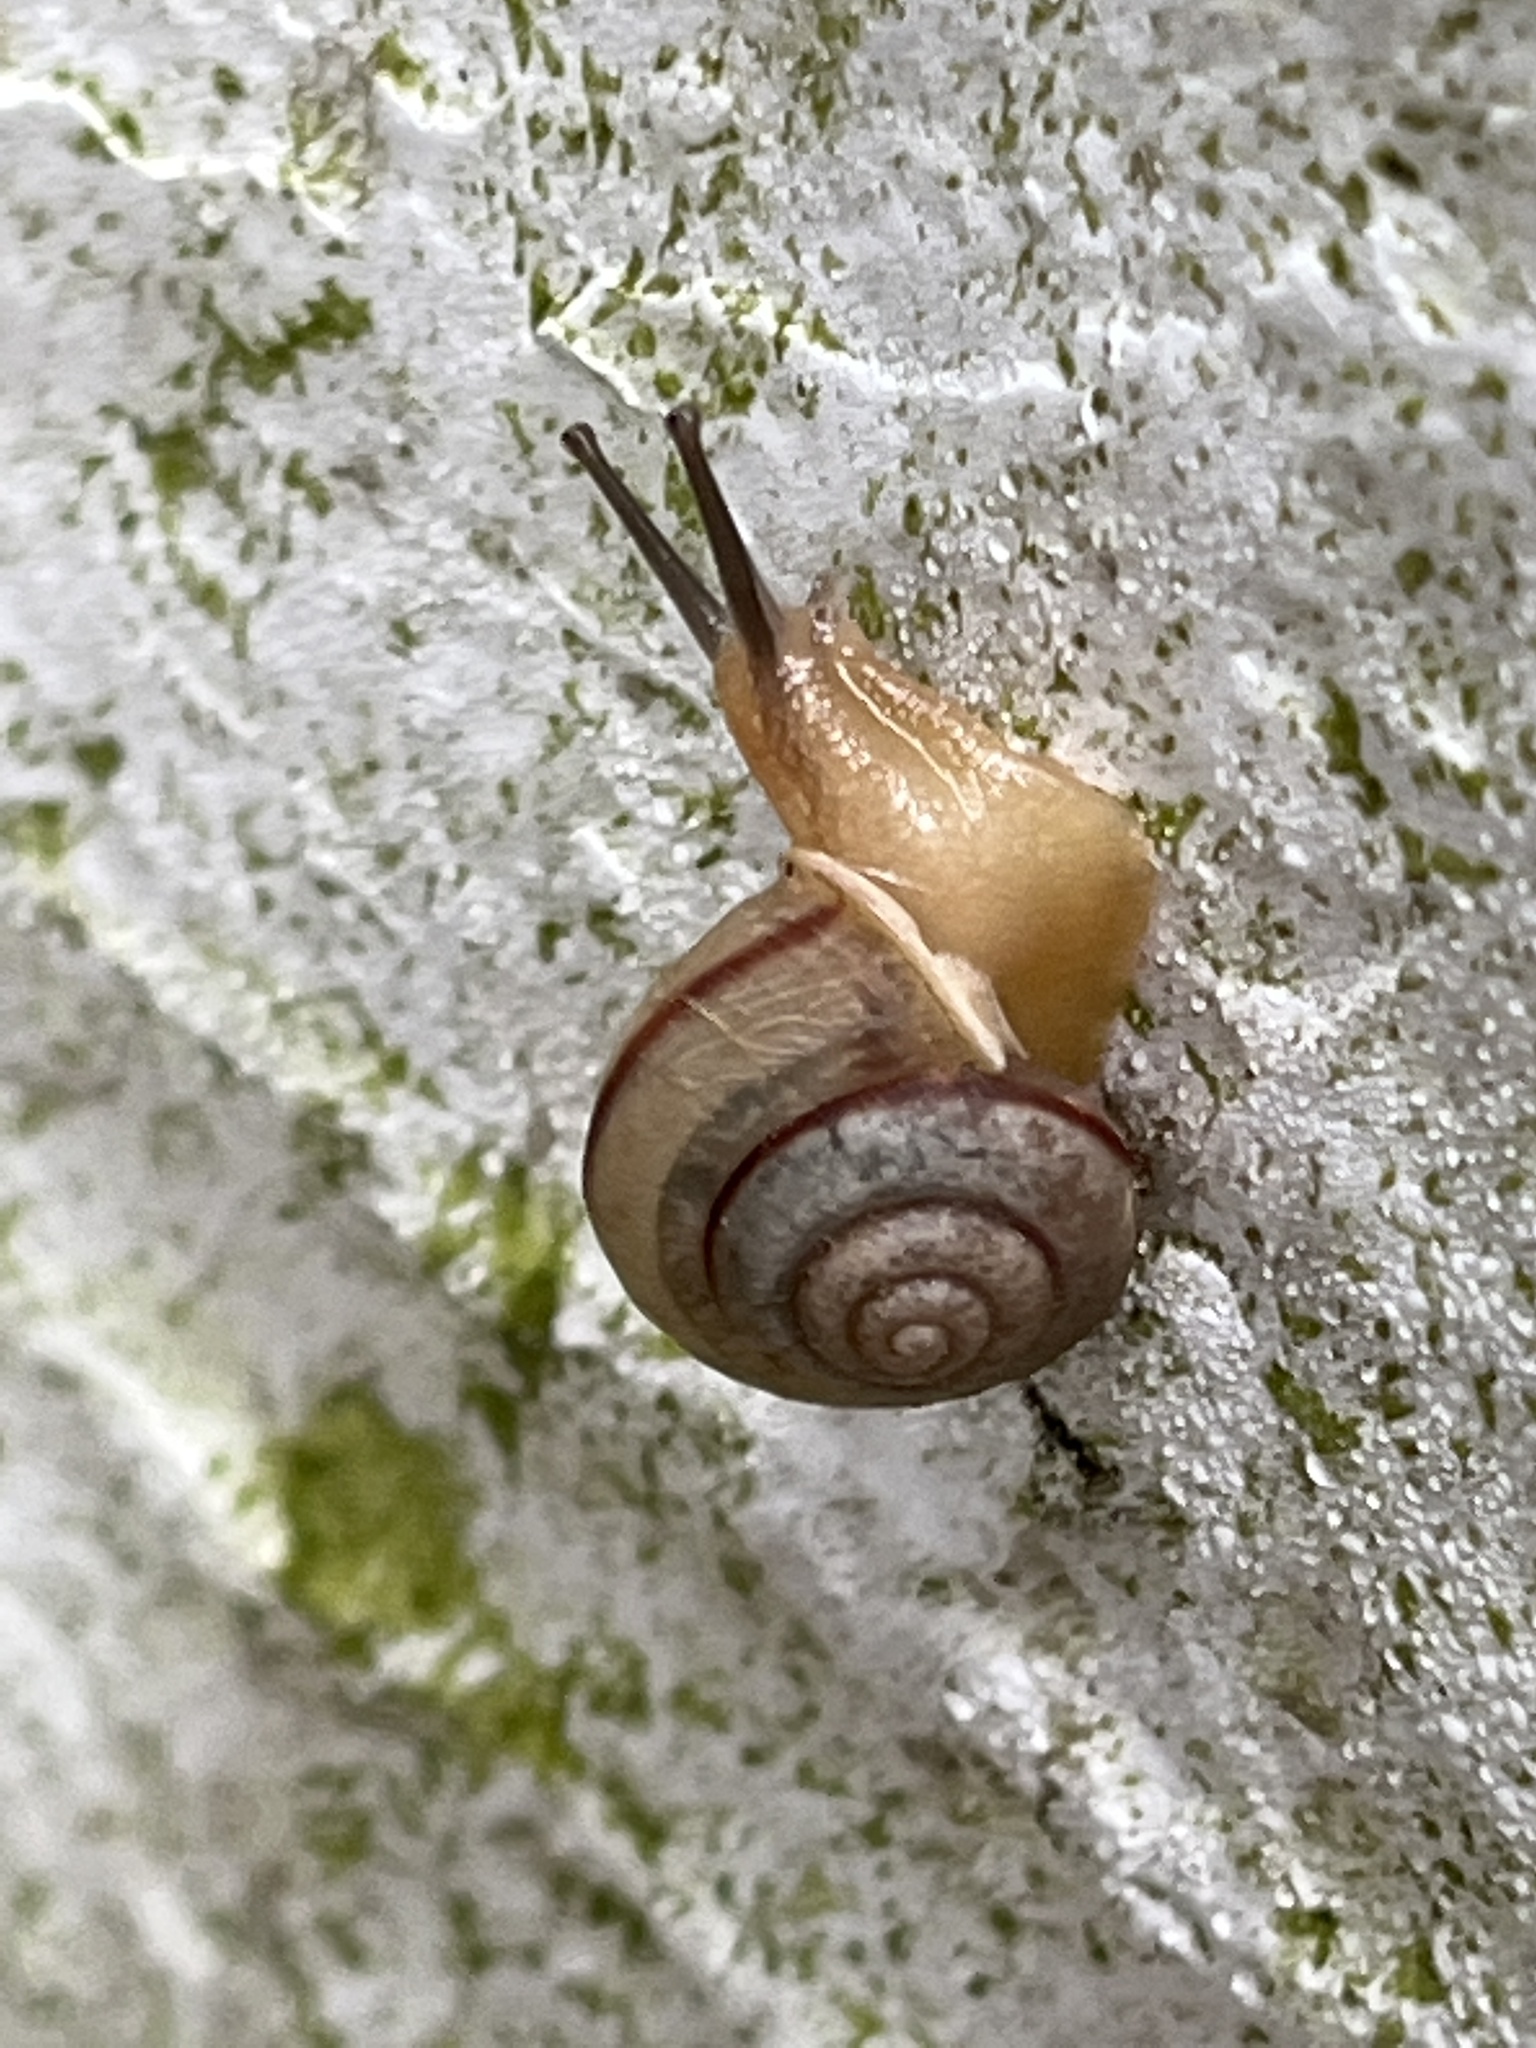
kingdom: Animalia
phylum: Mollusca
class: Gastropoda
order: Stylommatophora
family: Camaenidae
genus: Bradybaena
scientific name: Bradybaena similaris
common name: Asian trampsnail
